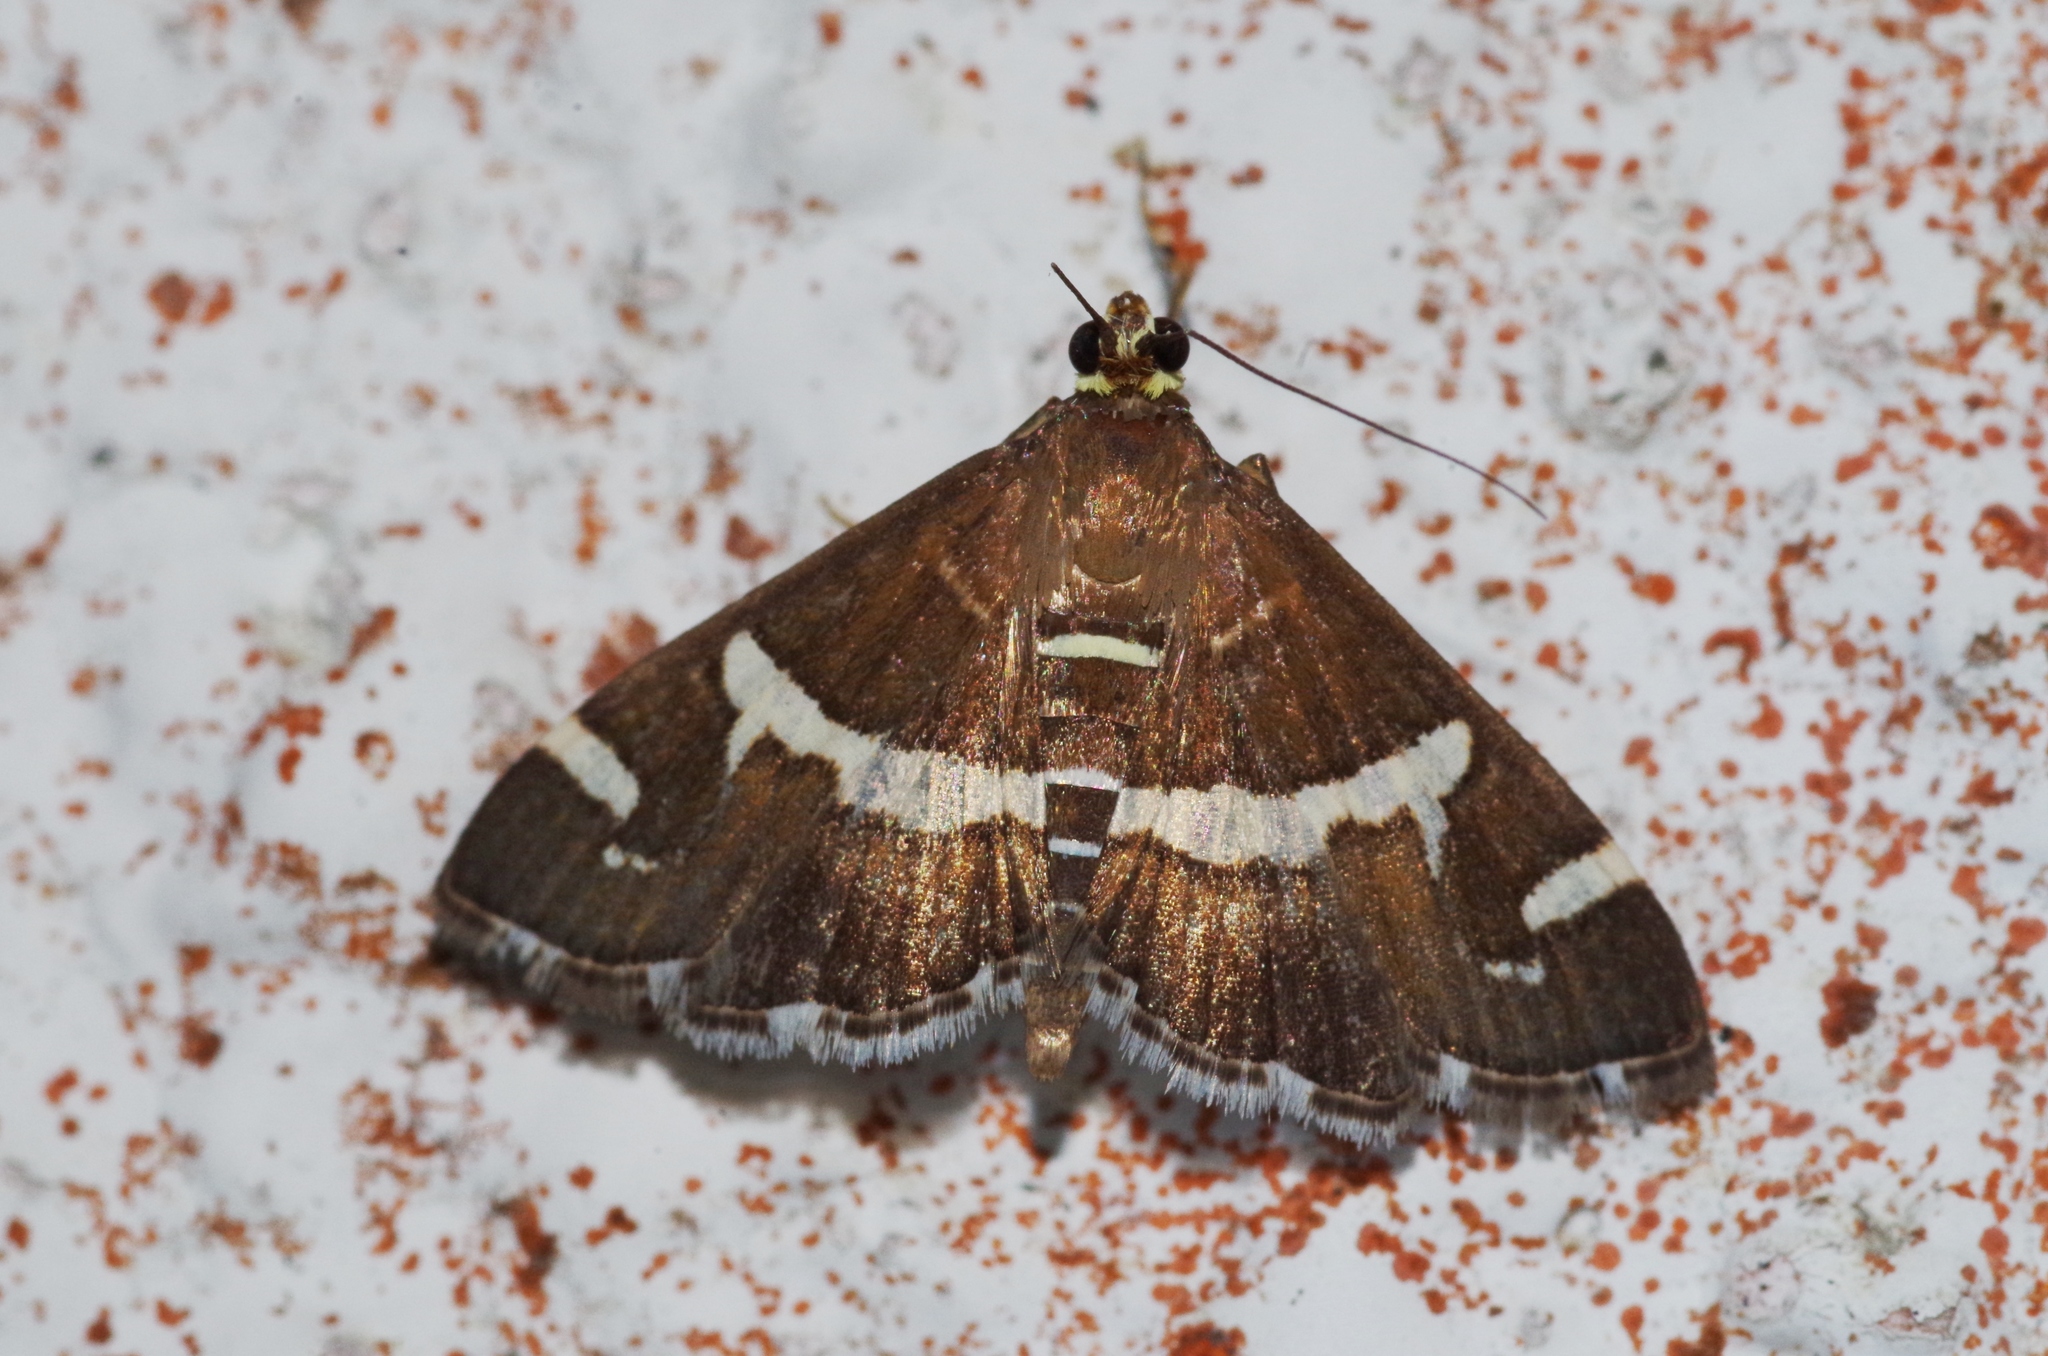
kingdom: Animalia
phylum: Arthropoda
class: Insecta
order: Lepidoptera
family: Crambidae
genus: Spoladea
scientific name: Spoladea recurvalis
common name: Beet webworm moth
